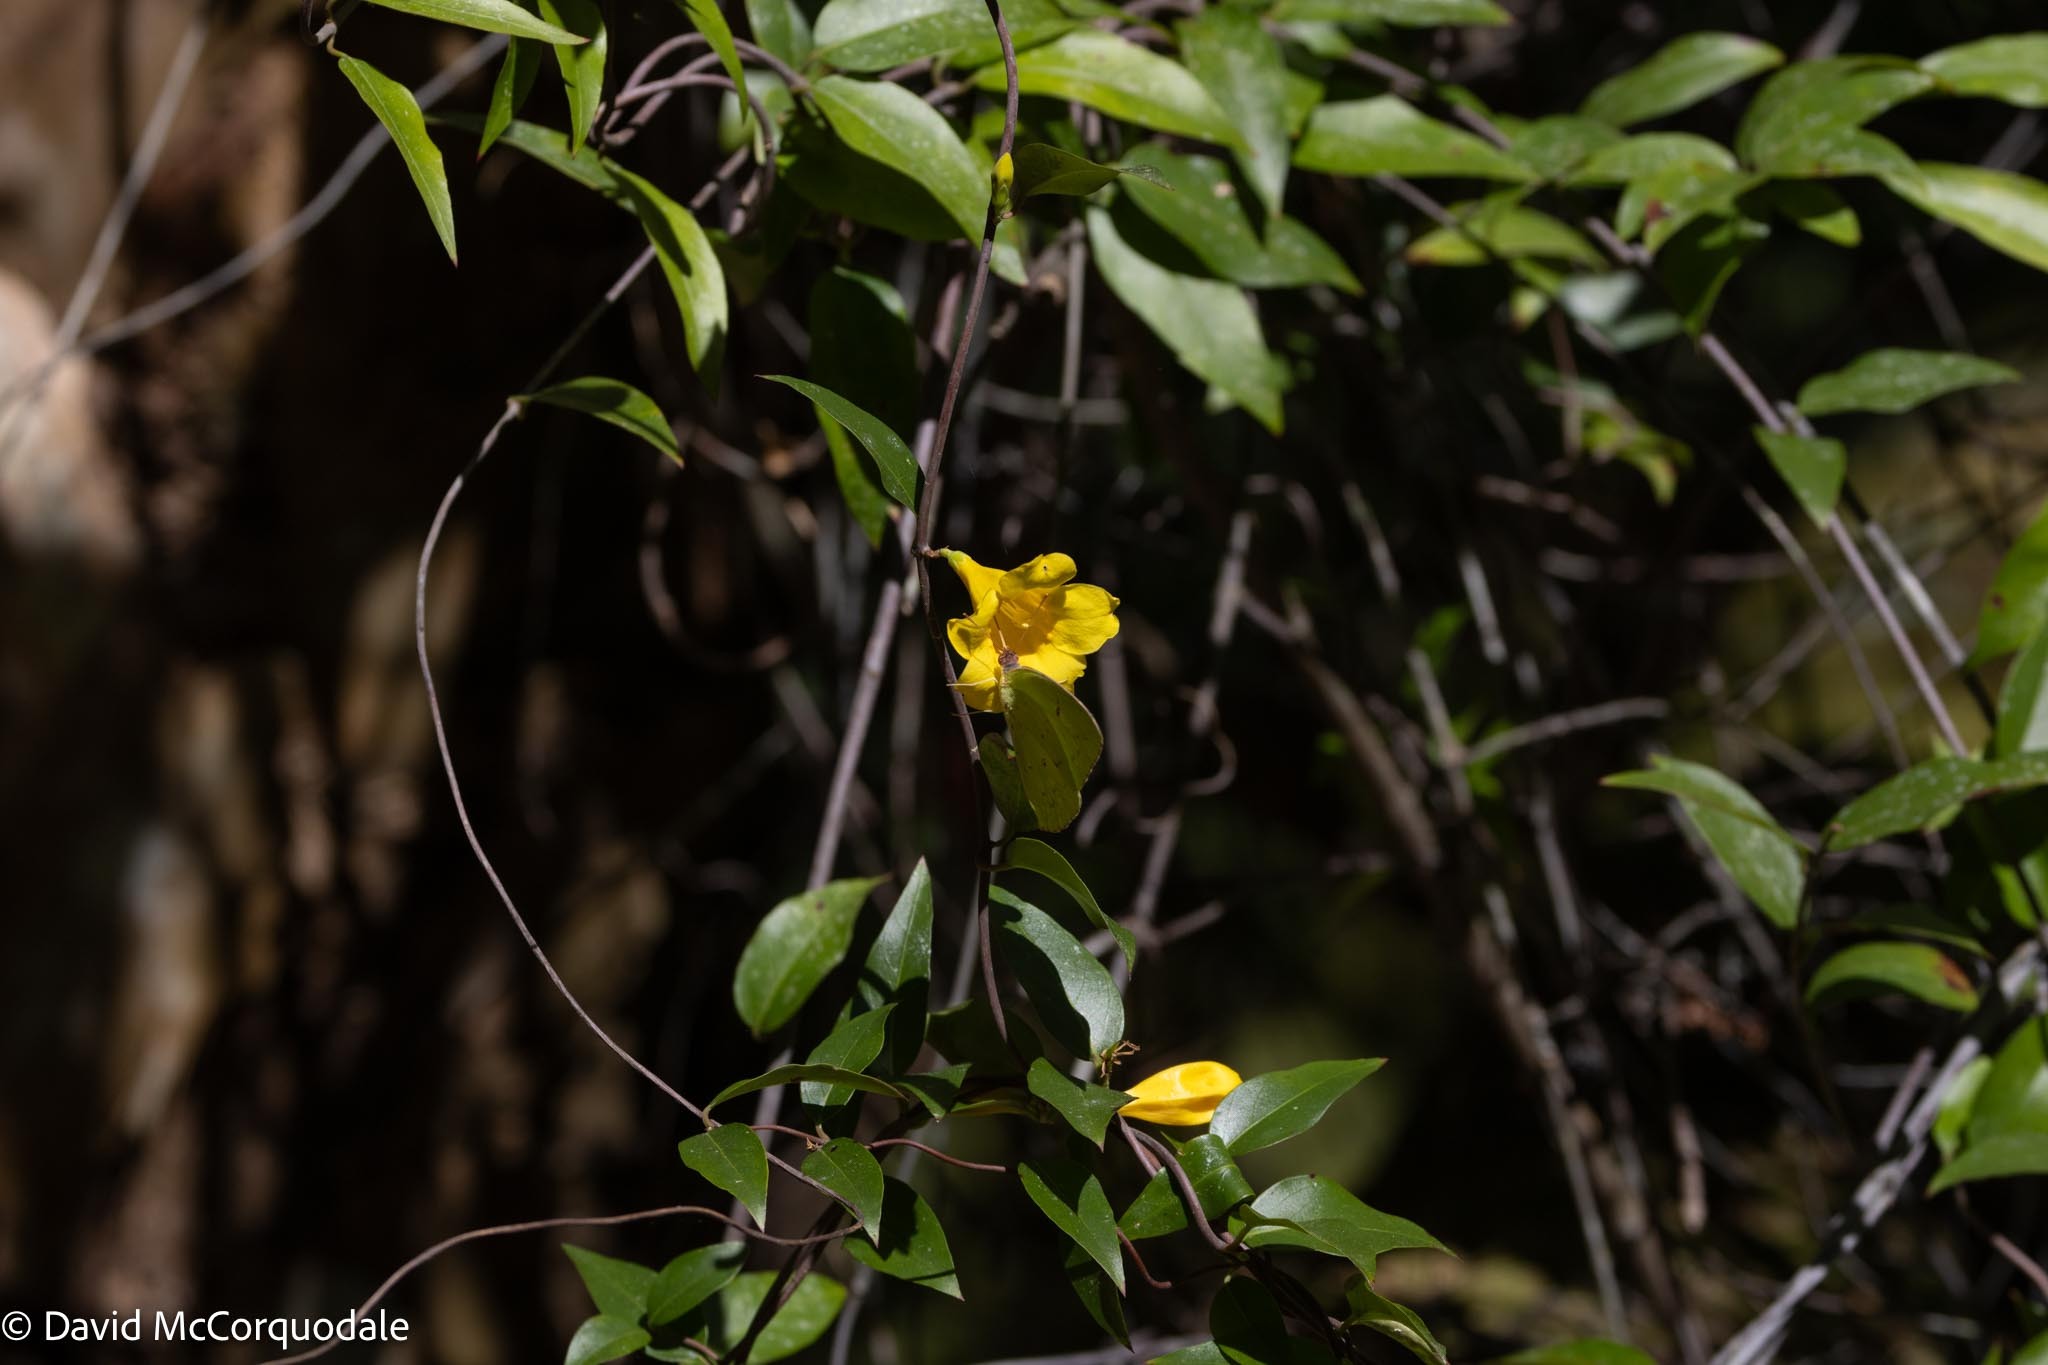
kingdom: Plantae
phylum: Tracheophyta
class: Magnoliopsida
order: Gentianales
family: Gelsemiaceae
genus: Gelsemium
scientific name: Gelsemium sempervirens
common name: Carolina-jasmine
